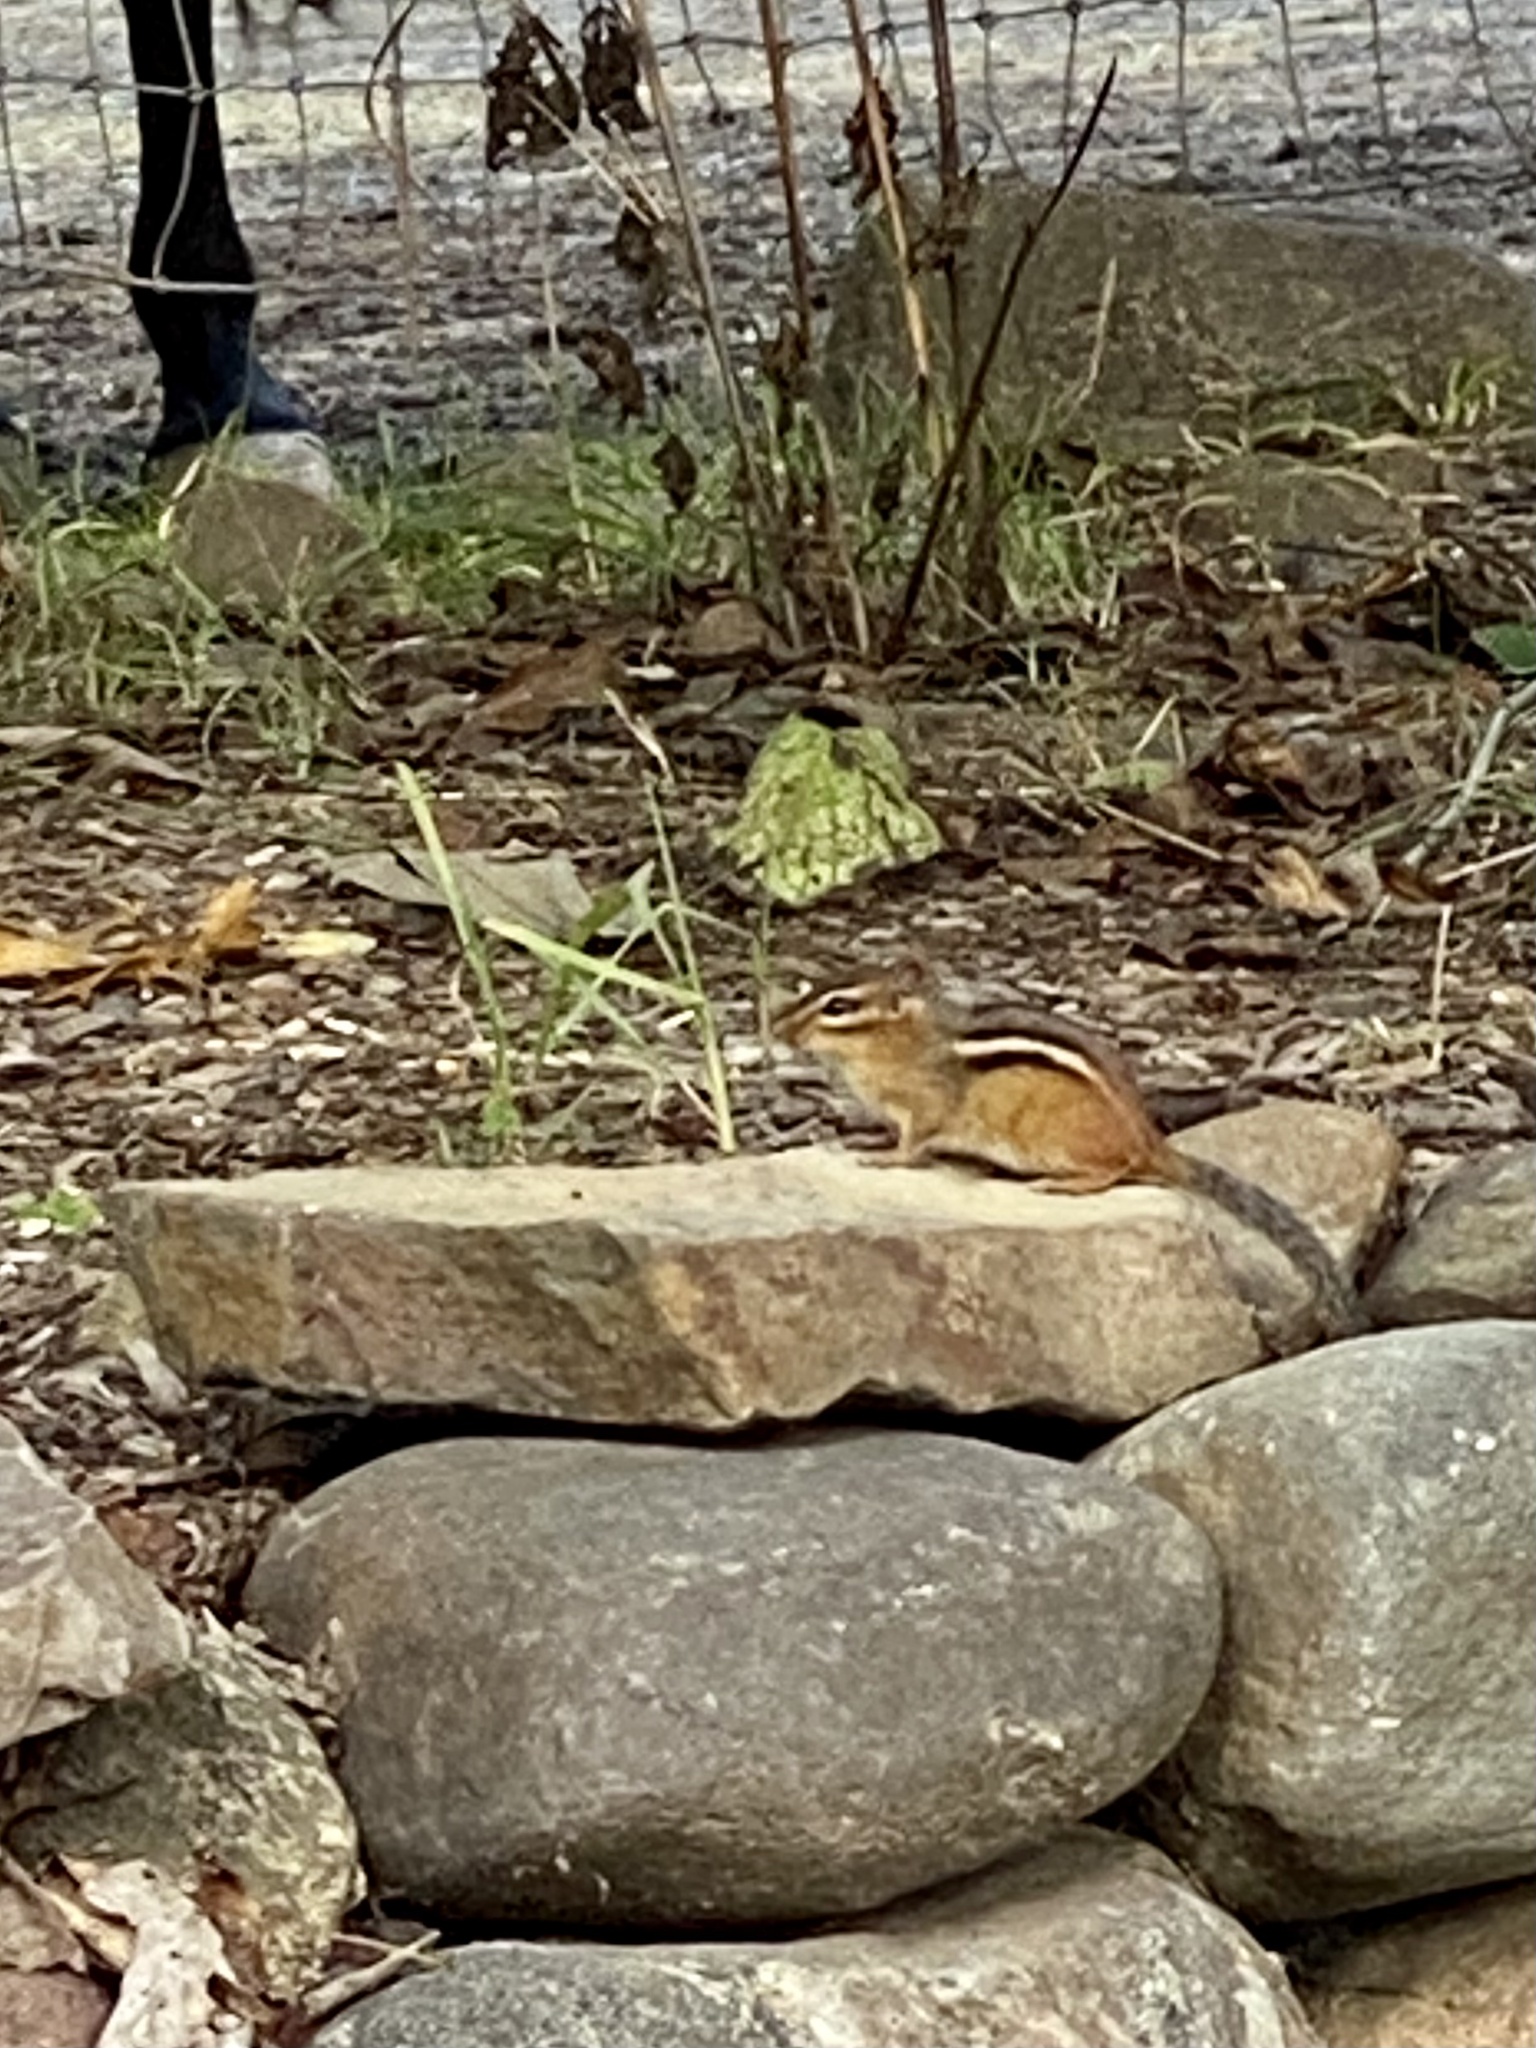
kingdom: Animalia
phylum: Chordata
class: Mammalia
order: Rodentia
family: Sciuridae
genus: Tamias
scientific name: Tamias striatus
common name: Eastern chipmunk
